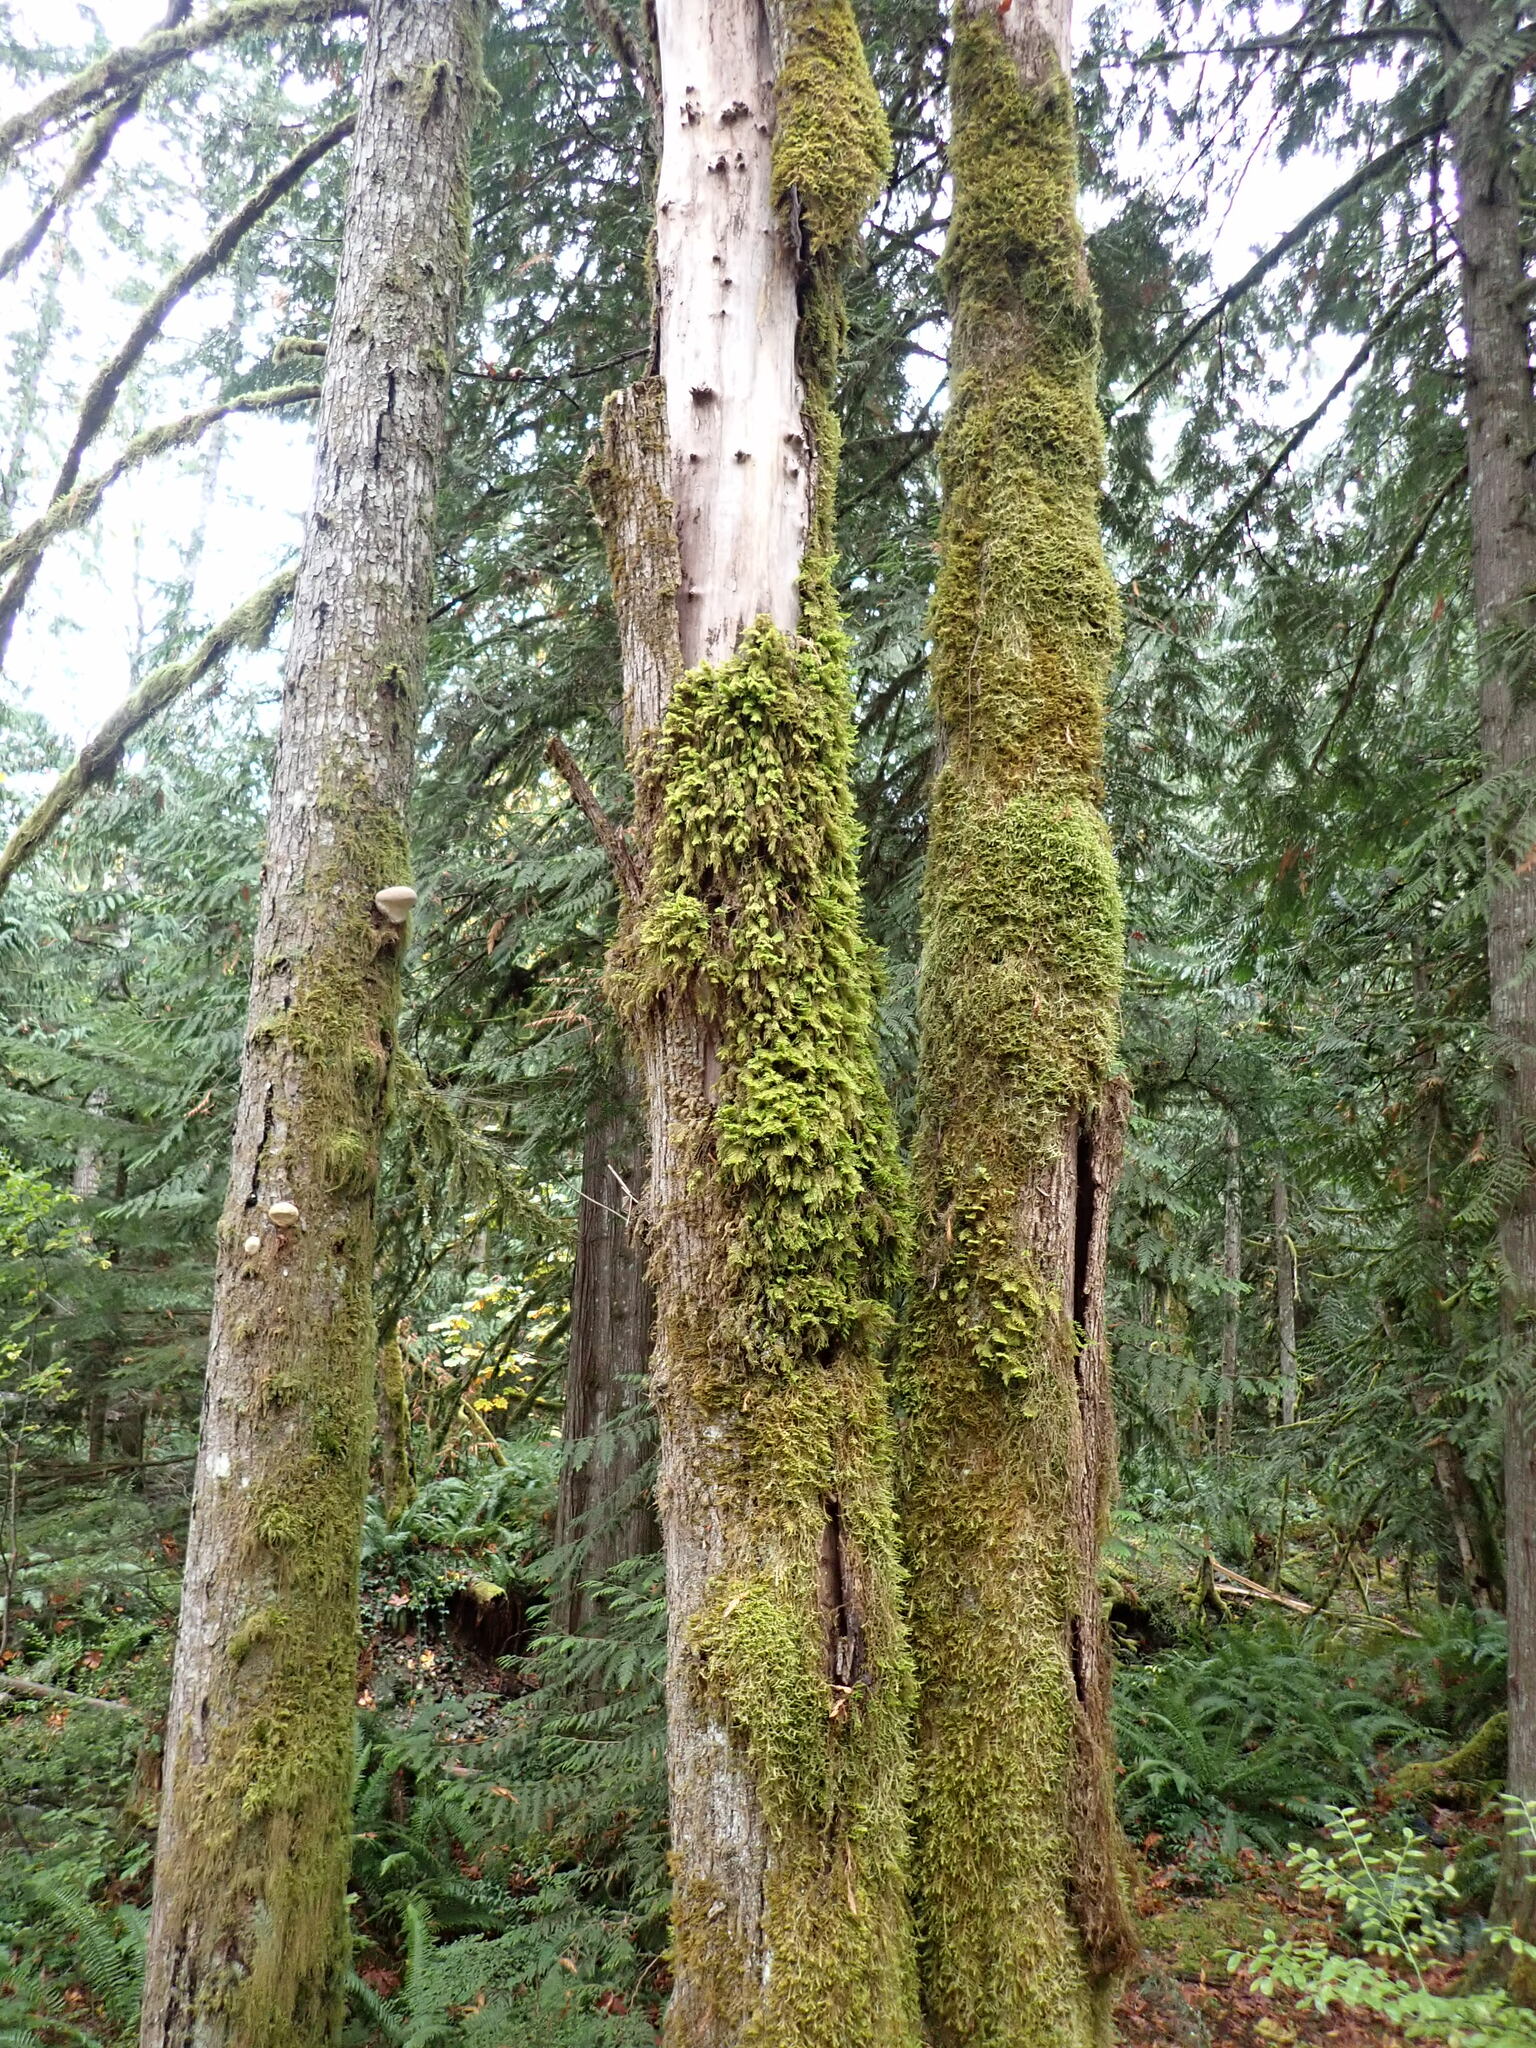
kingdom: Plantae
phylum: Bryophyta
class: Bryopsida
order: Hypnales
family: Cryphaeaceae
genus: Dendroalsia
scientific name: Dendroalsia abietina
